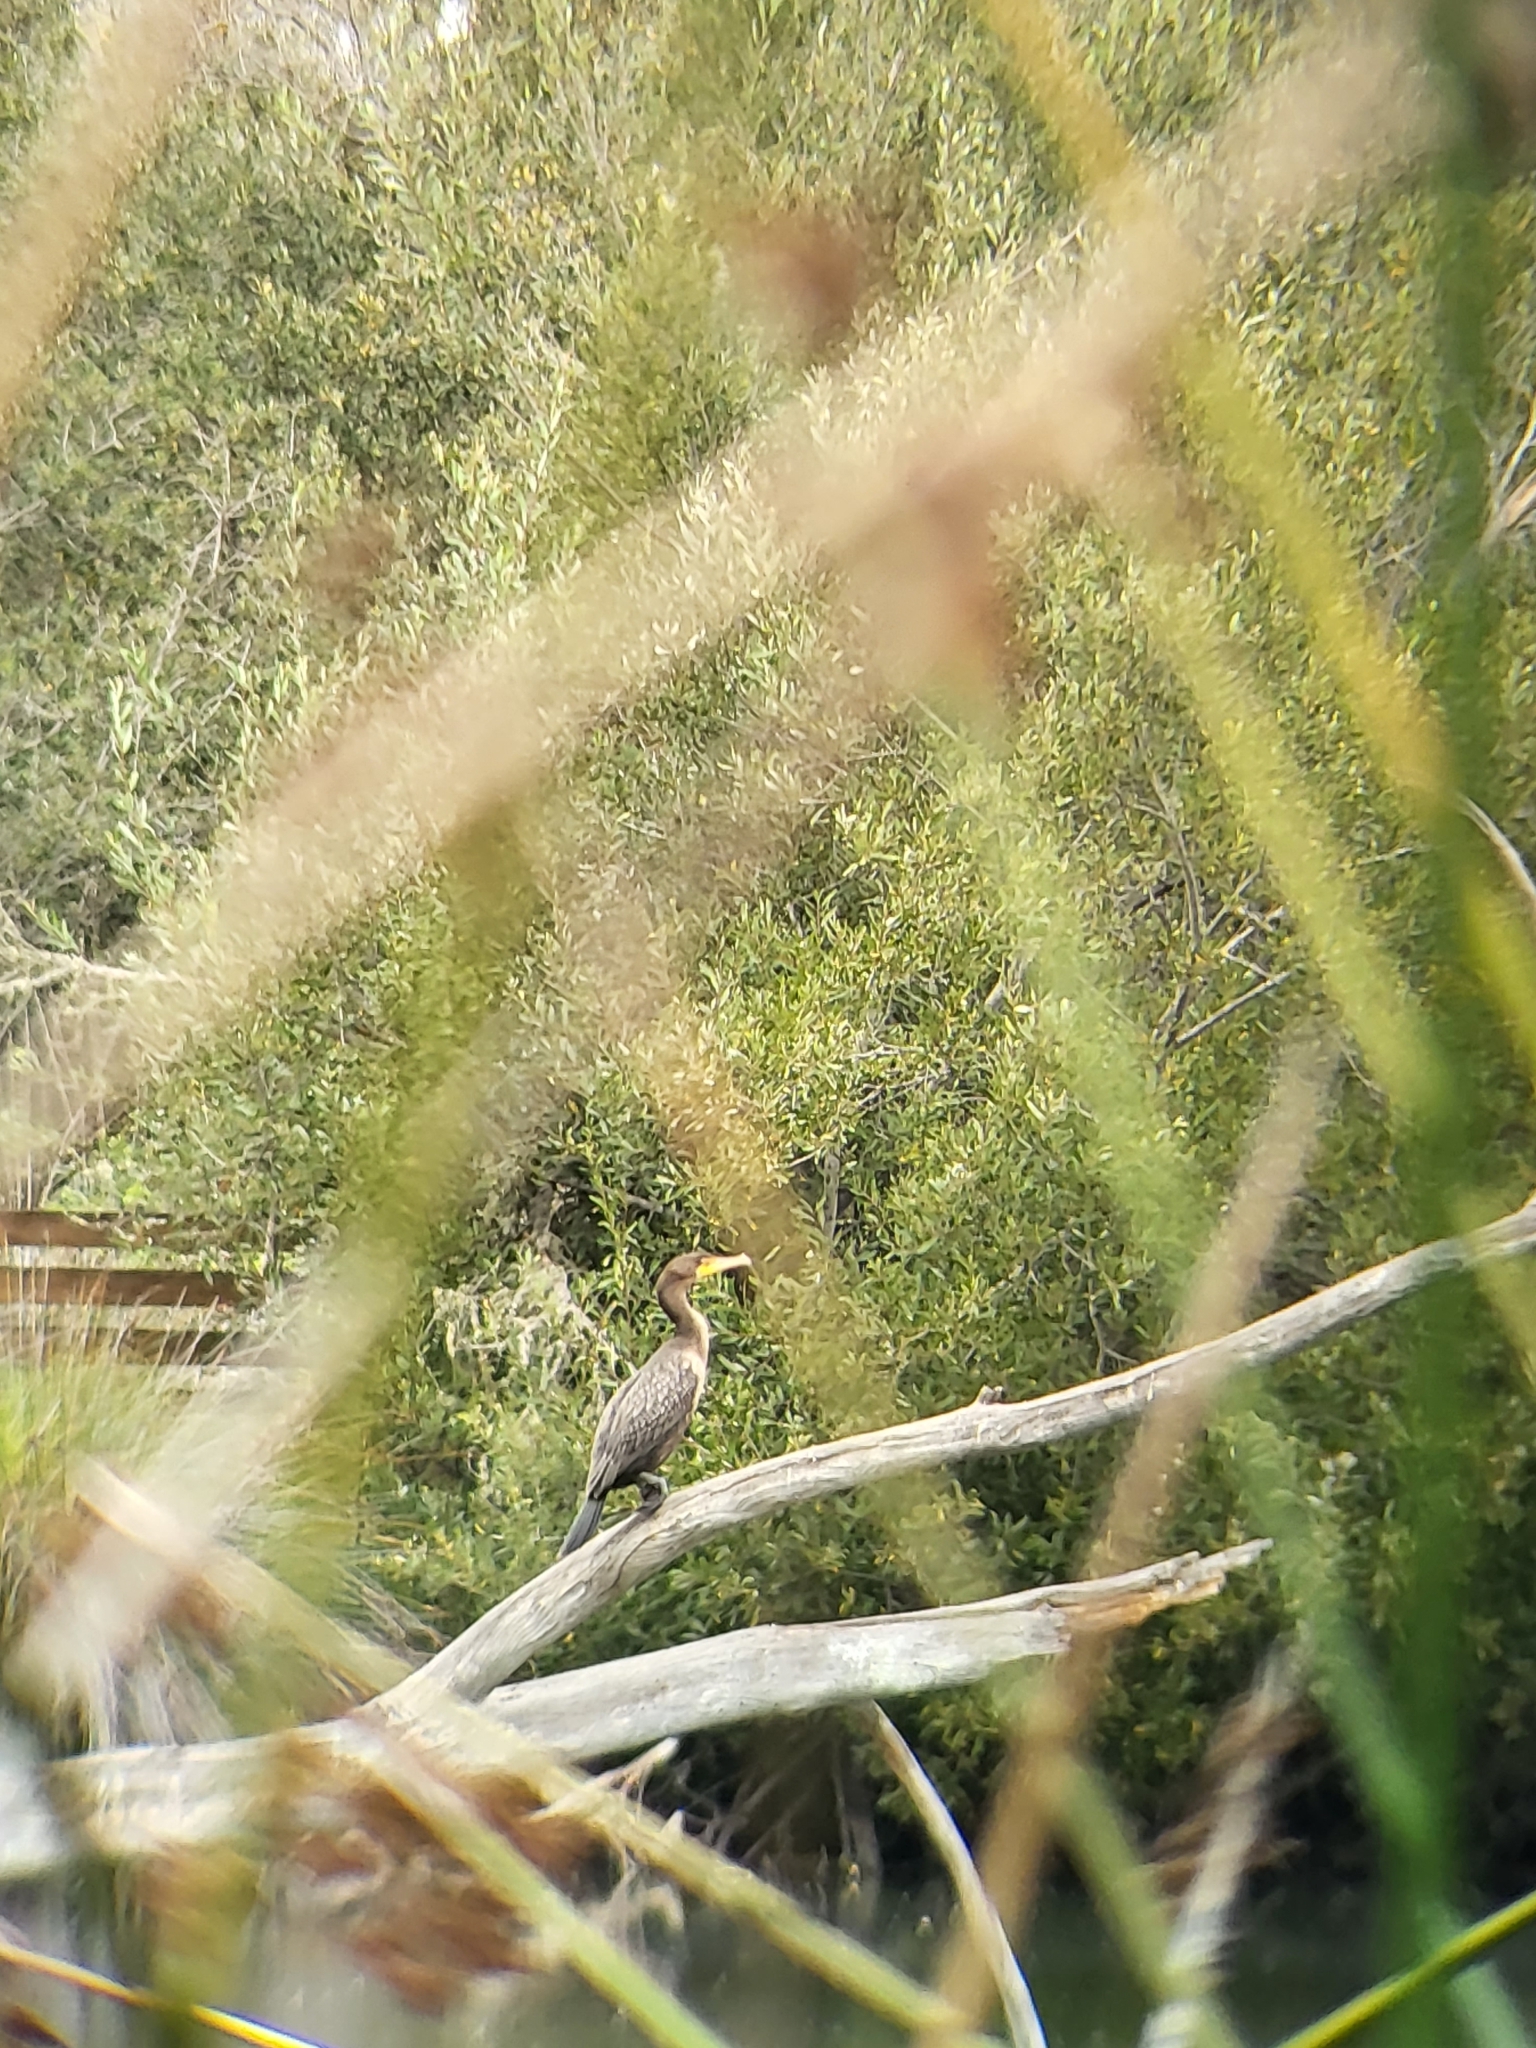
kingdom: Animalia
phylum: Chordata
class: Aves
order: Suliformes
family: Phalacrocoracidae
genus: Phalacrocorax
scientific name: Phalacrocorax auritus
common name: Double-crested cormorant
